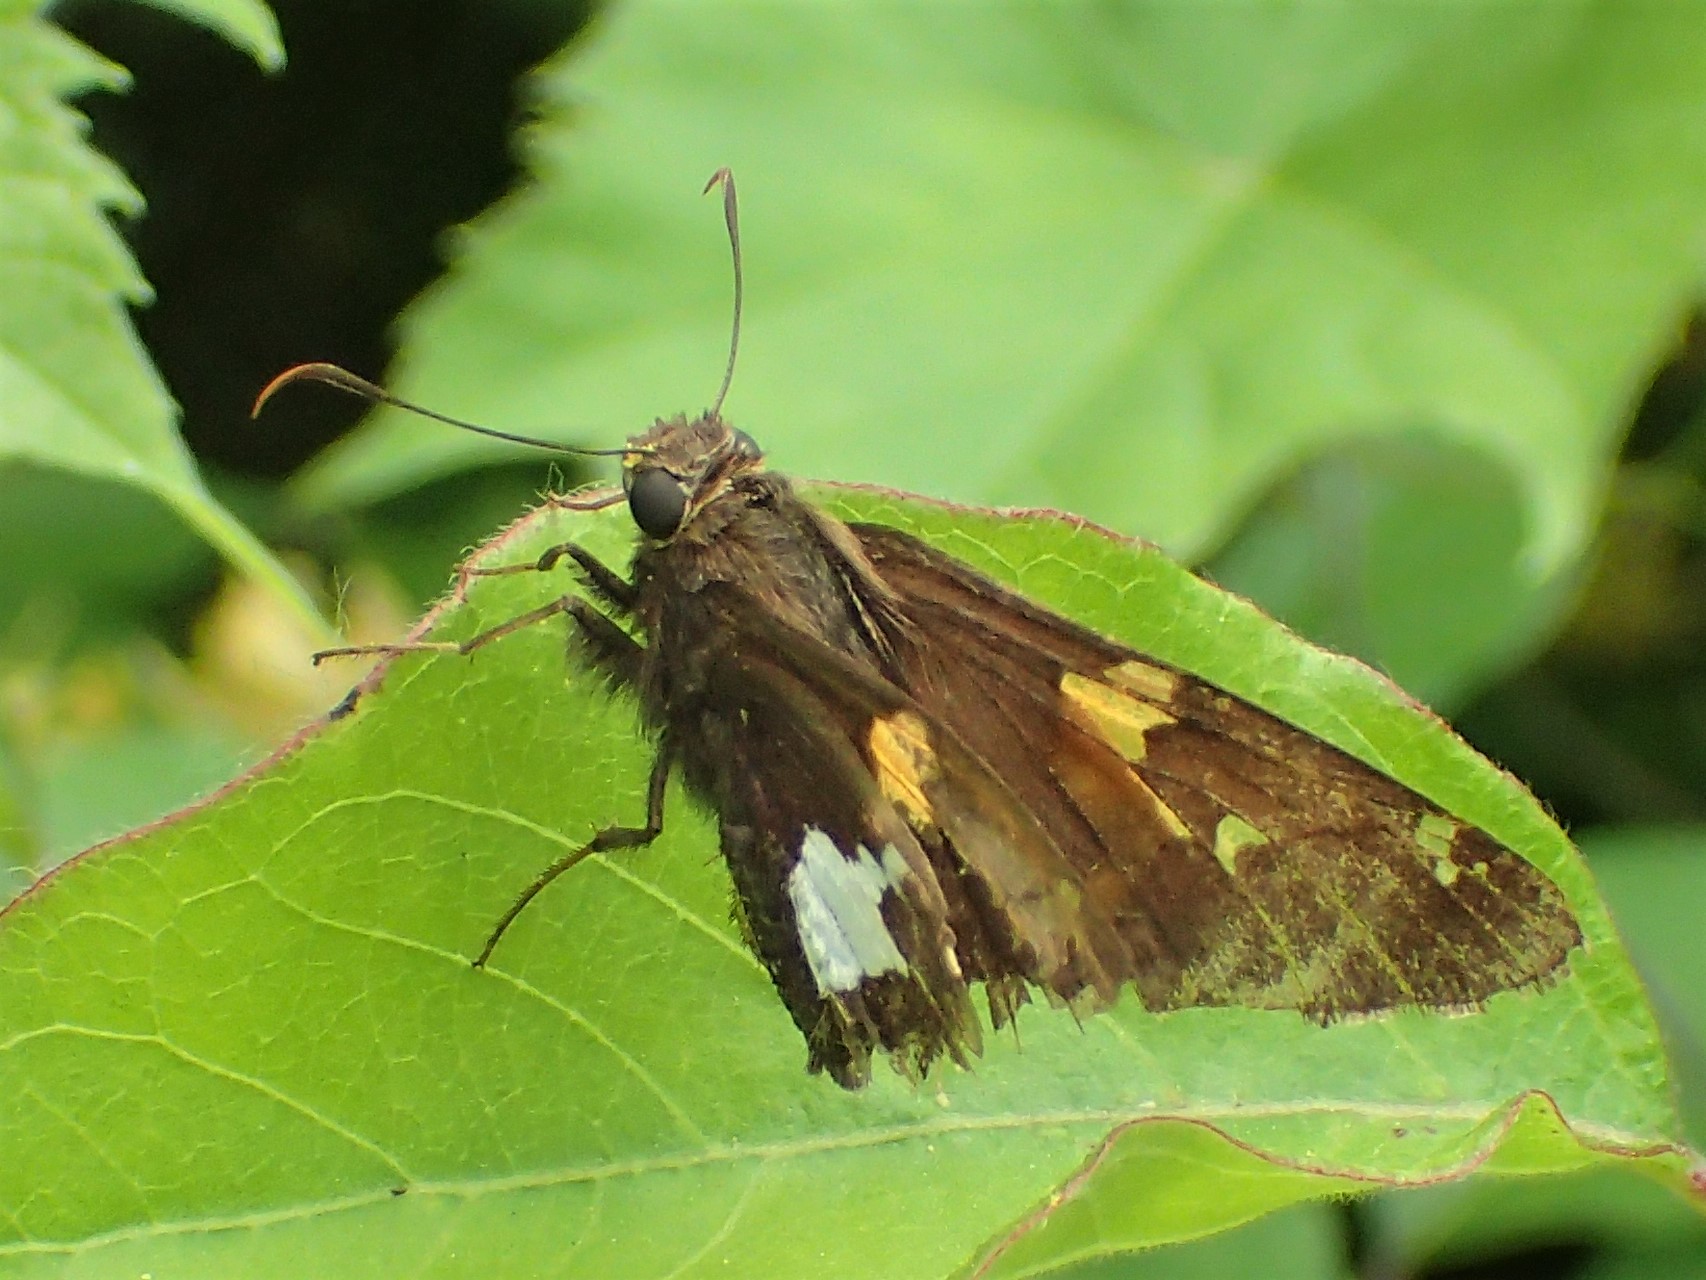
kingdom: Animalia
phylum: Arthropoda
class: Insecta
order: Lepidoptera
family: Hesperiidae
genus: Epargyreus
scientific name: Epargyreus clarus
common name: Silver-spotted skipper
